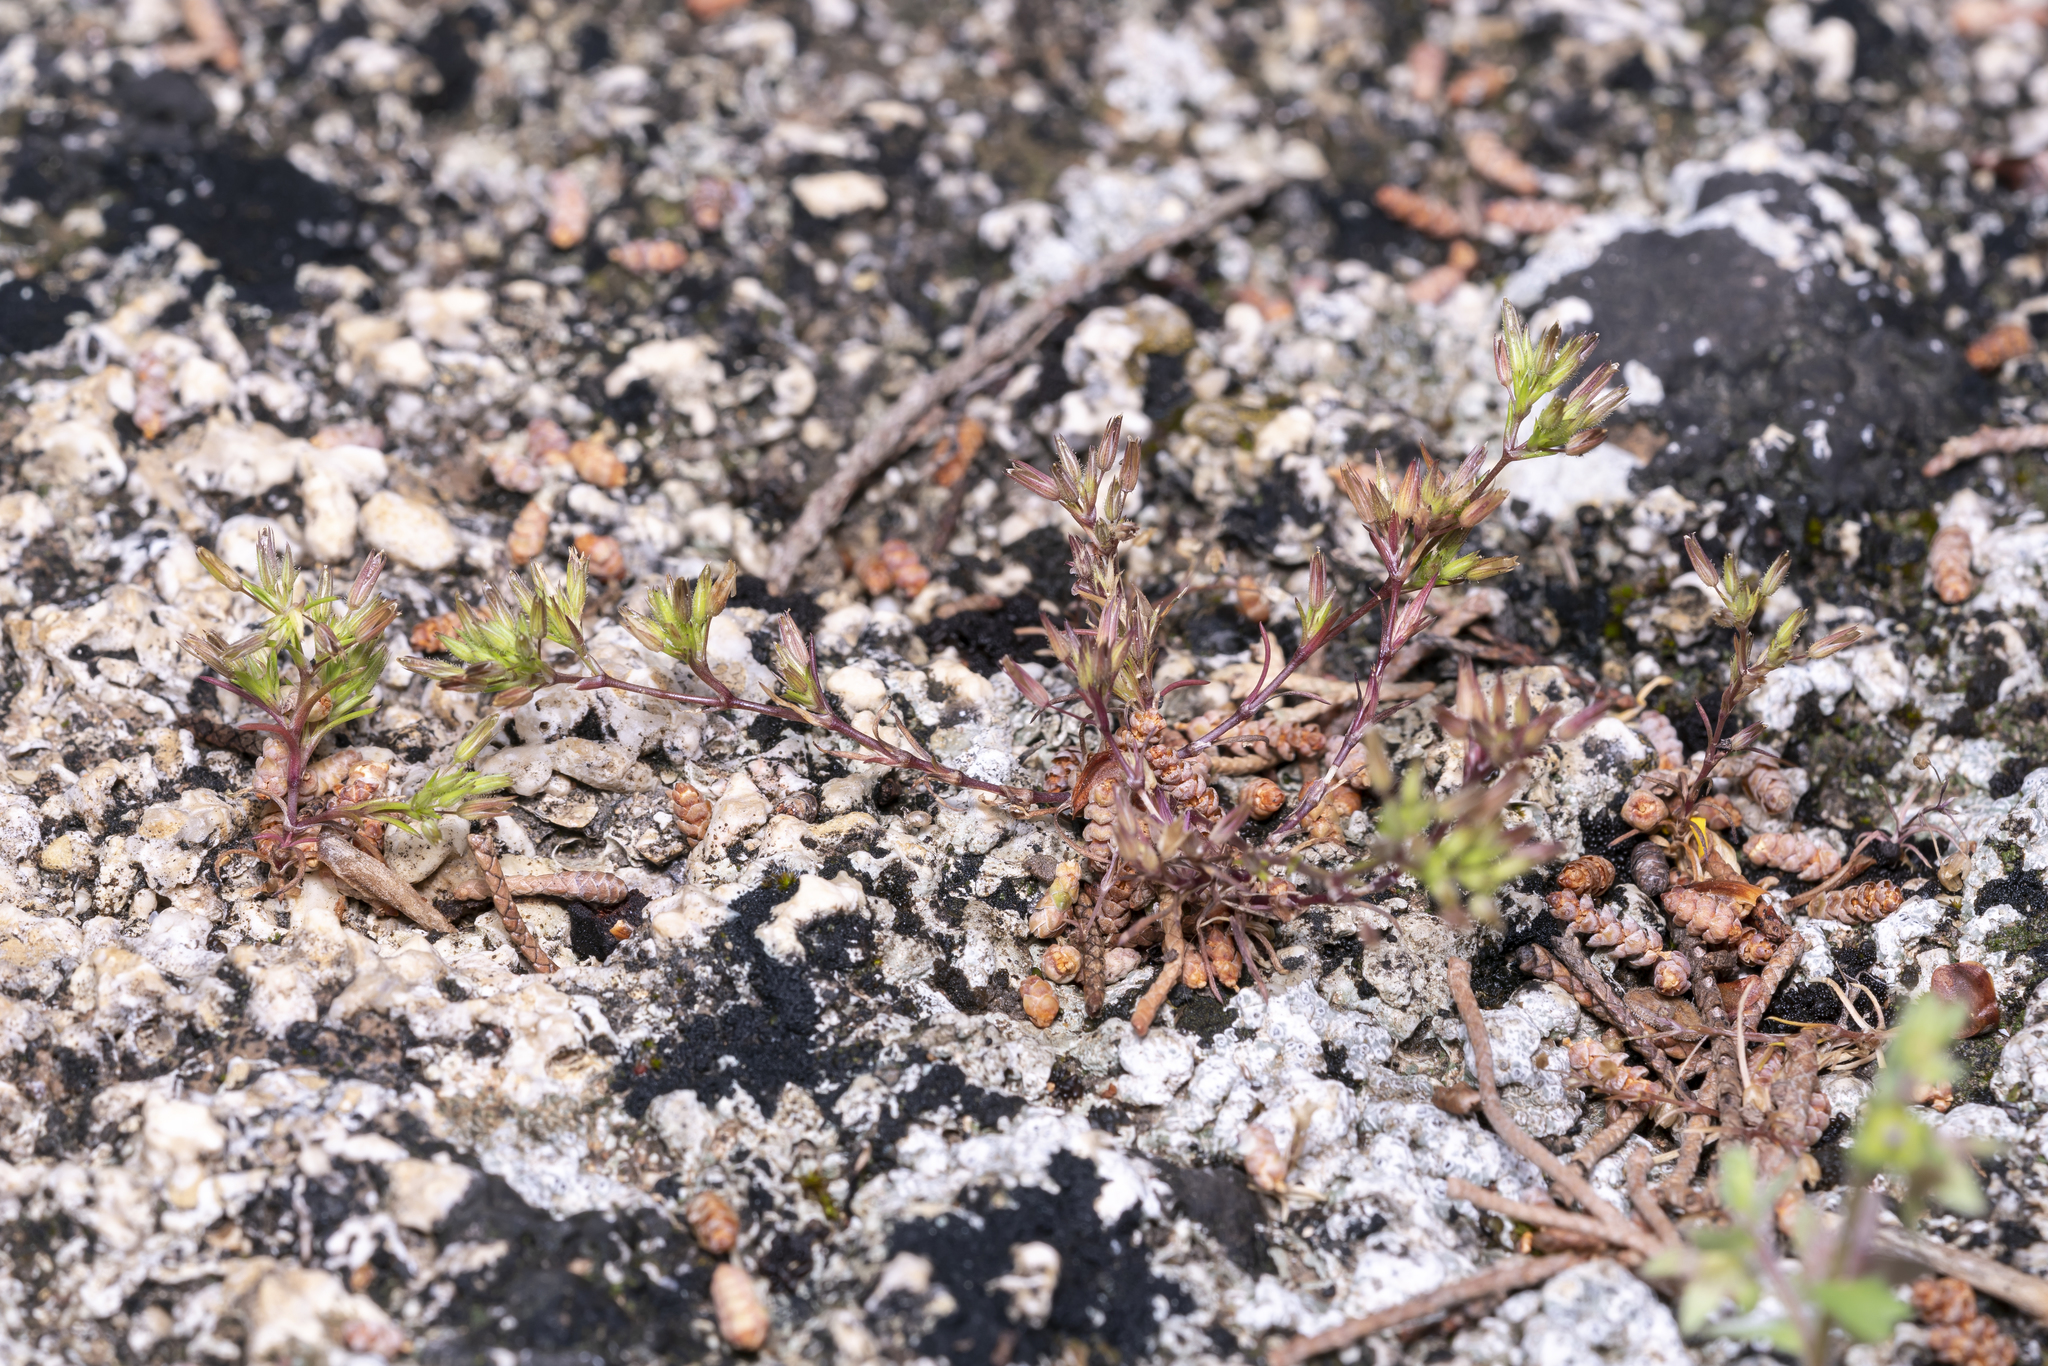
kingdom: Plantae
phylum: Tracheophyta
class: Magnoliopsida
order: Caryophyllales
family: Caryophyllaceae
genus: Sabulina
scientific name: Sabulina mediterranea
